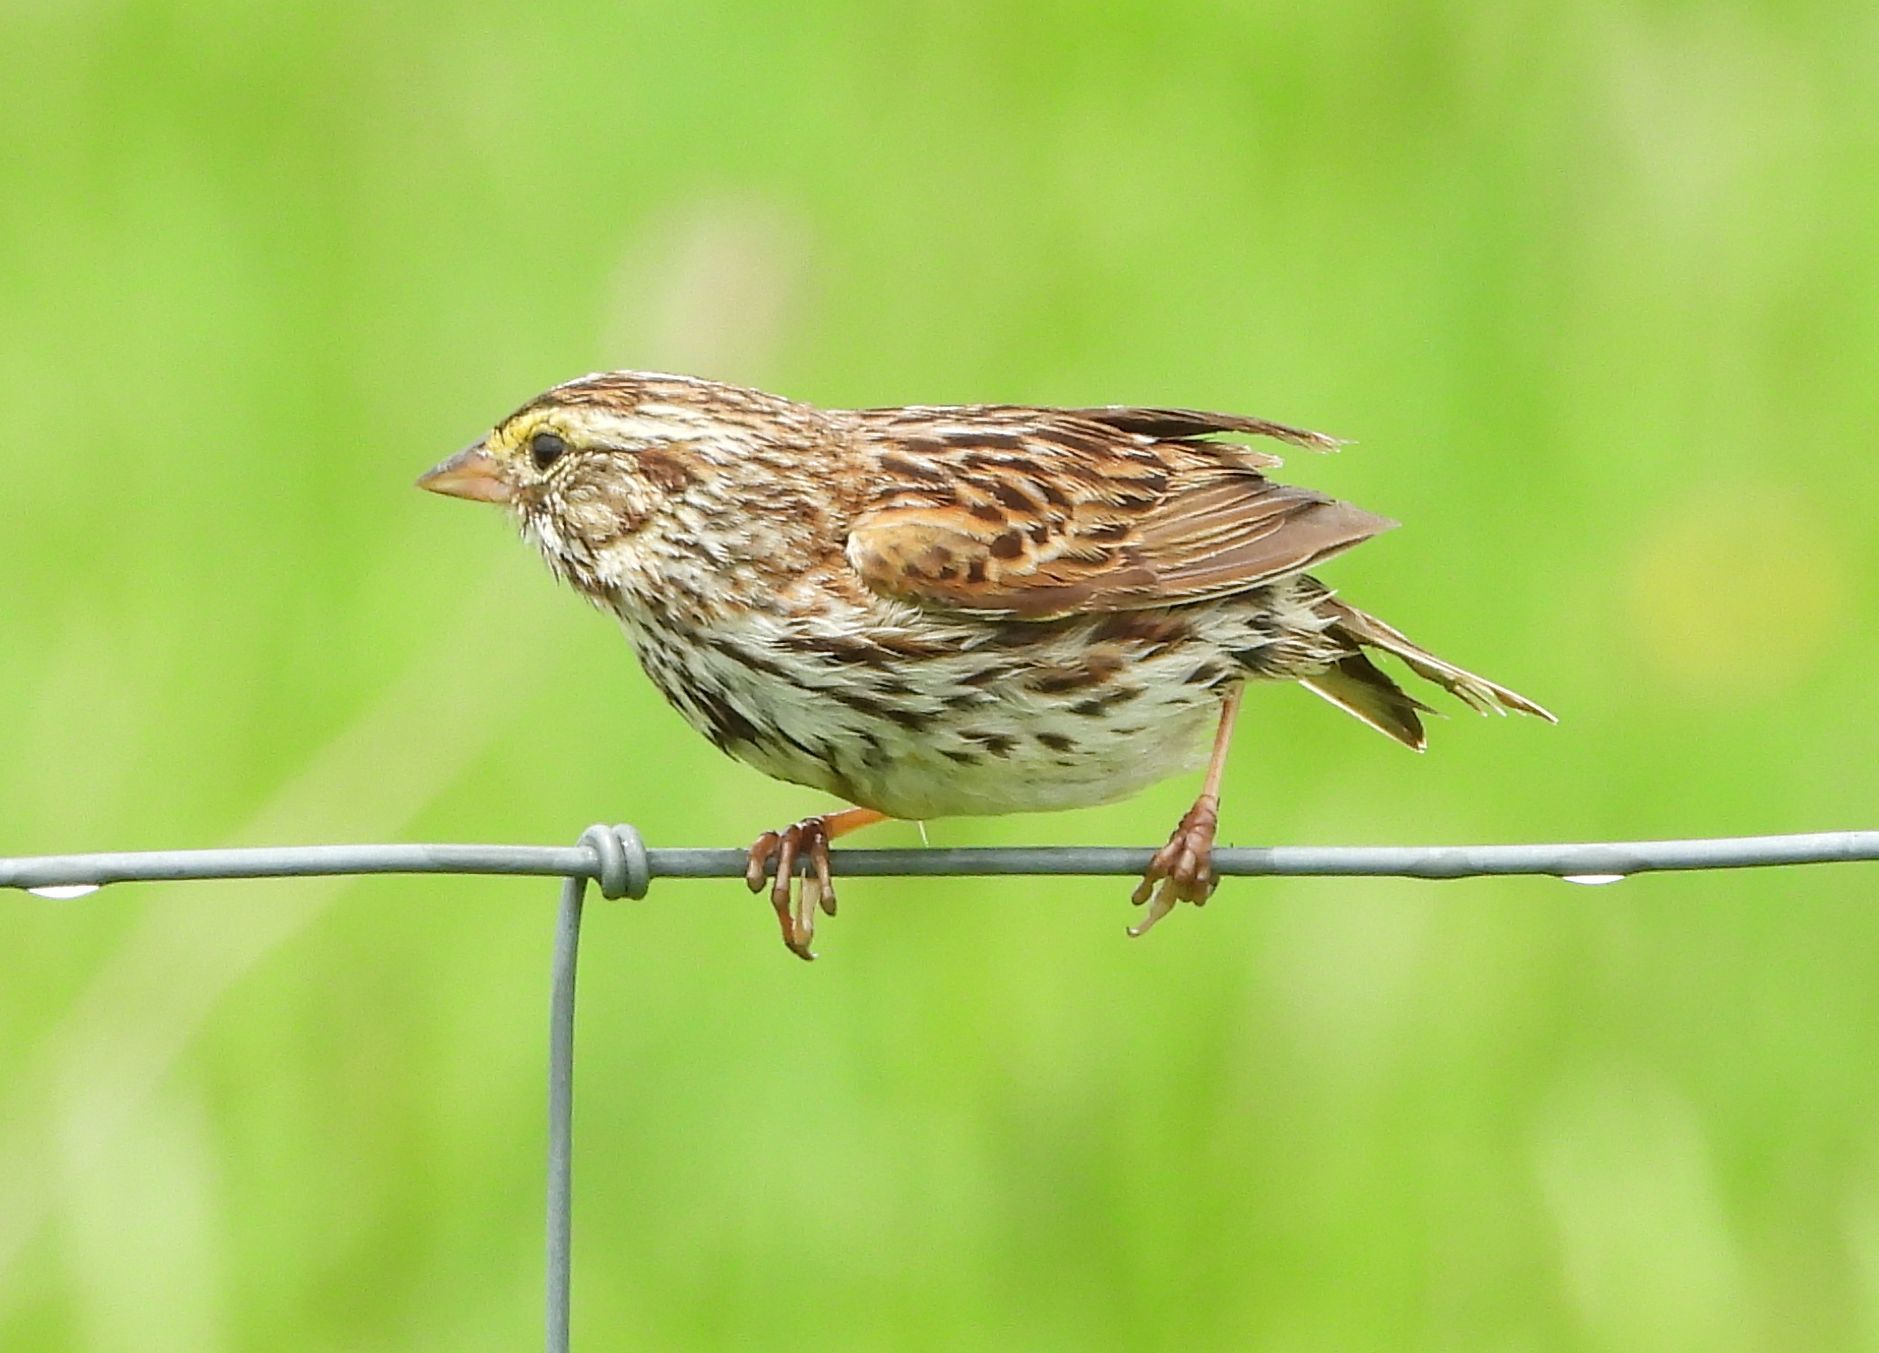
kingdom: Animalia
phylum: Chordata
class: Aves
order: Passeriformes
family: Passerellidae
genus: Passerculus
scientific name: Passerculus sandwichensis
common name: Savannah sparrow
